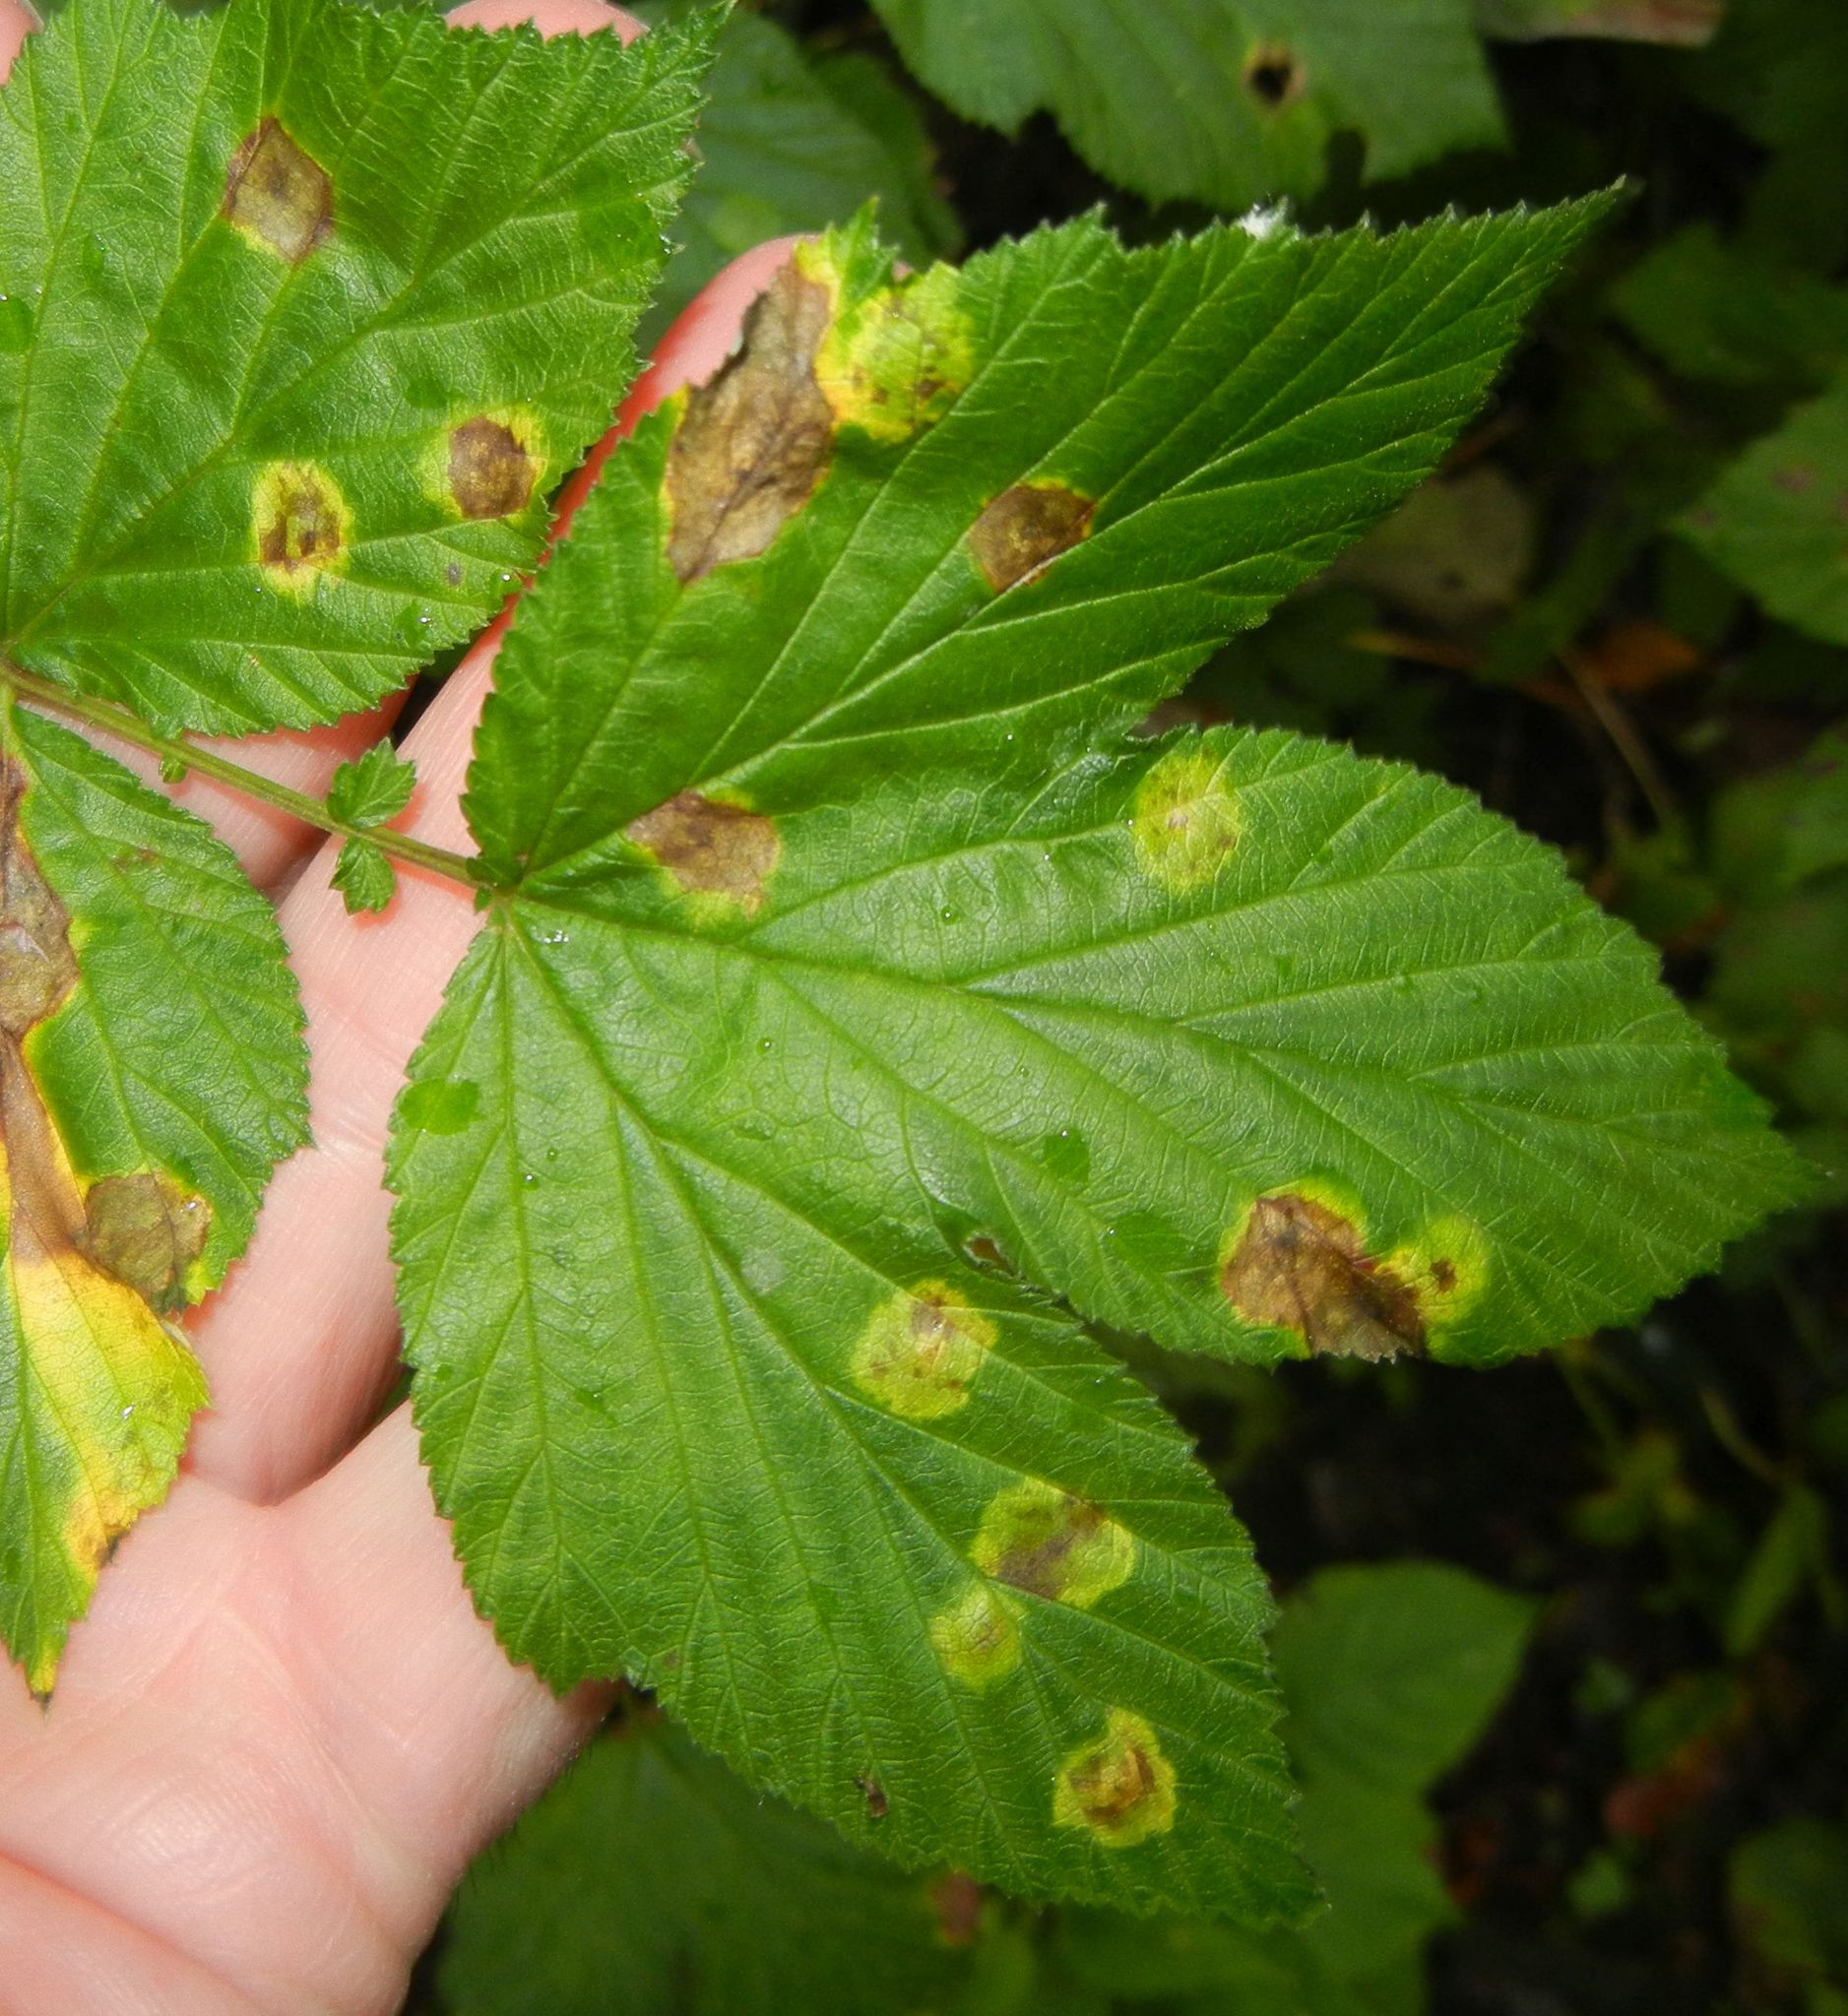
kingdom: Animalia
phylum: Arthropoda
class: Insecta
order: Diptera
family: Cecidomyiidae
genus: Dasineura
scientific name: Dasineura pustulans
